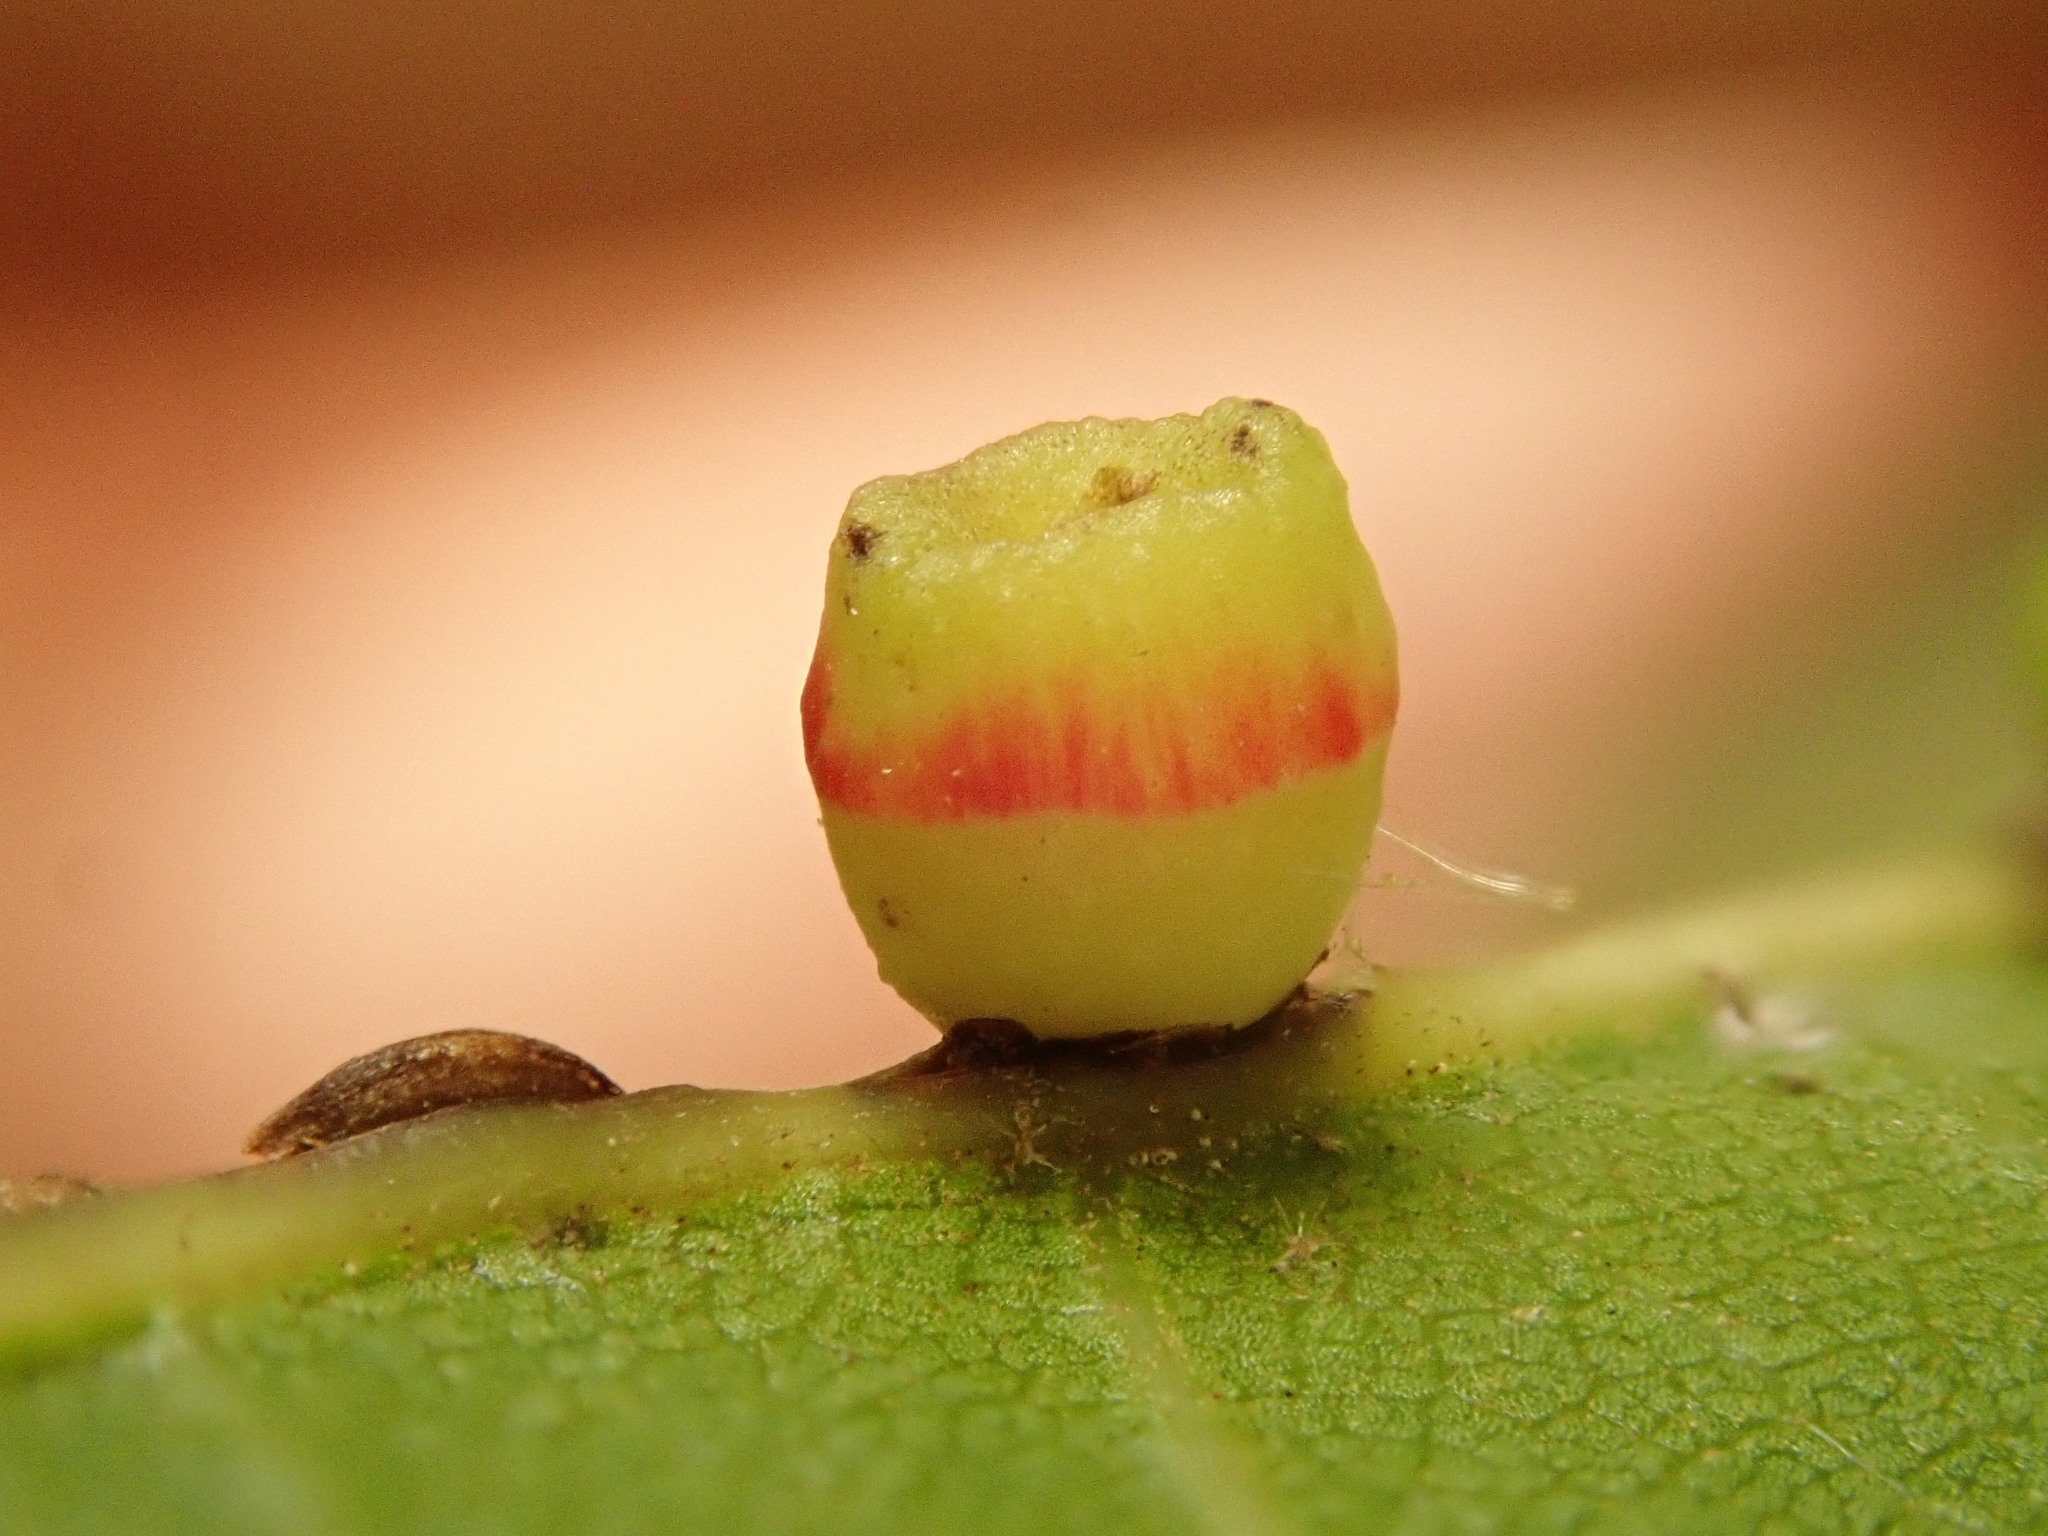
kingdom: Animalia
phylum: Arthropoda
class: Insecta
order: Hymenoptera
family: Cynipidae
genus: Kokkocynips
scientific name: Kokkocynips rileyi
